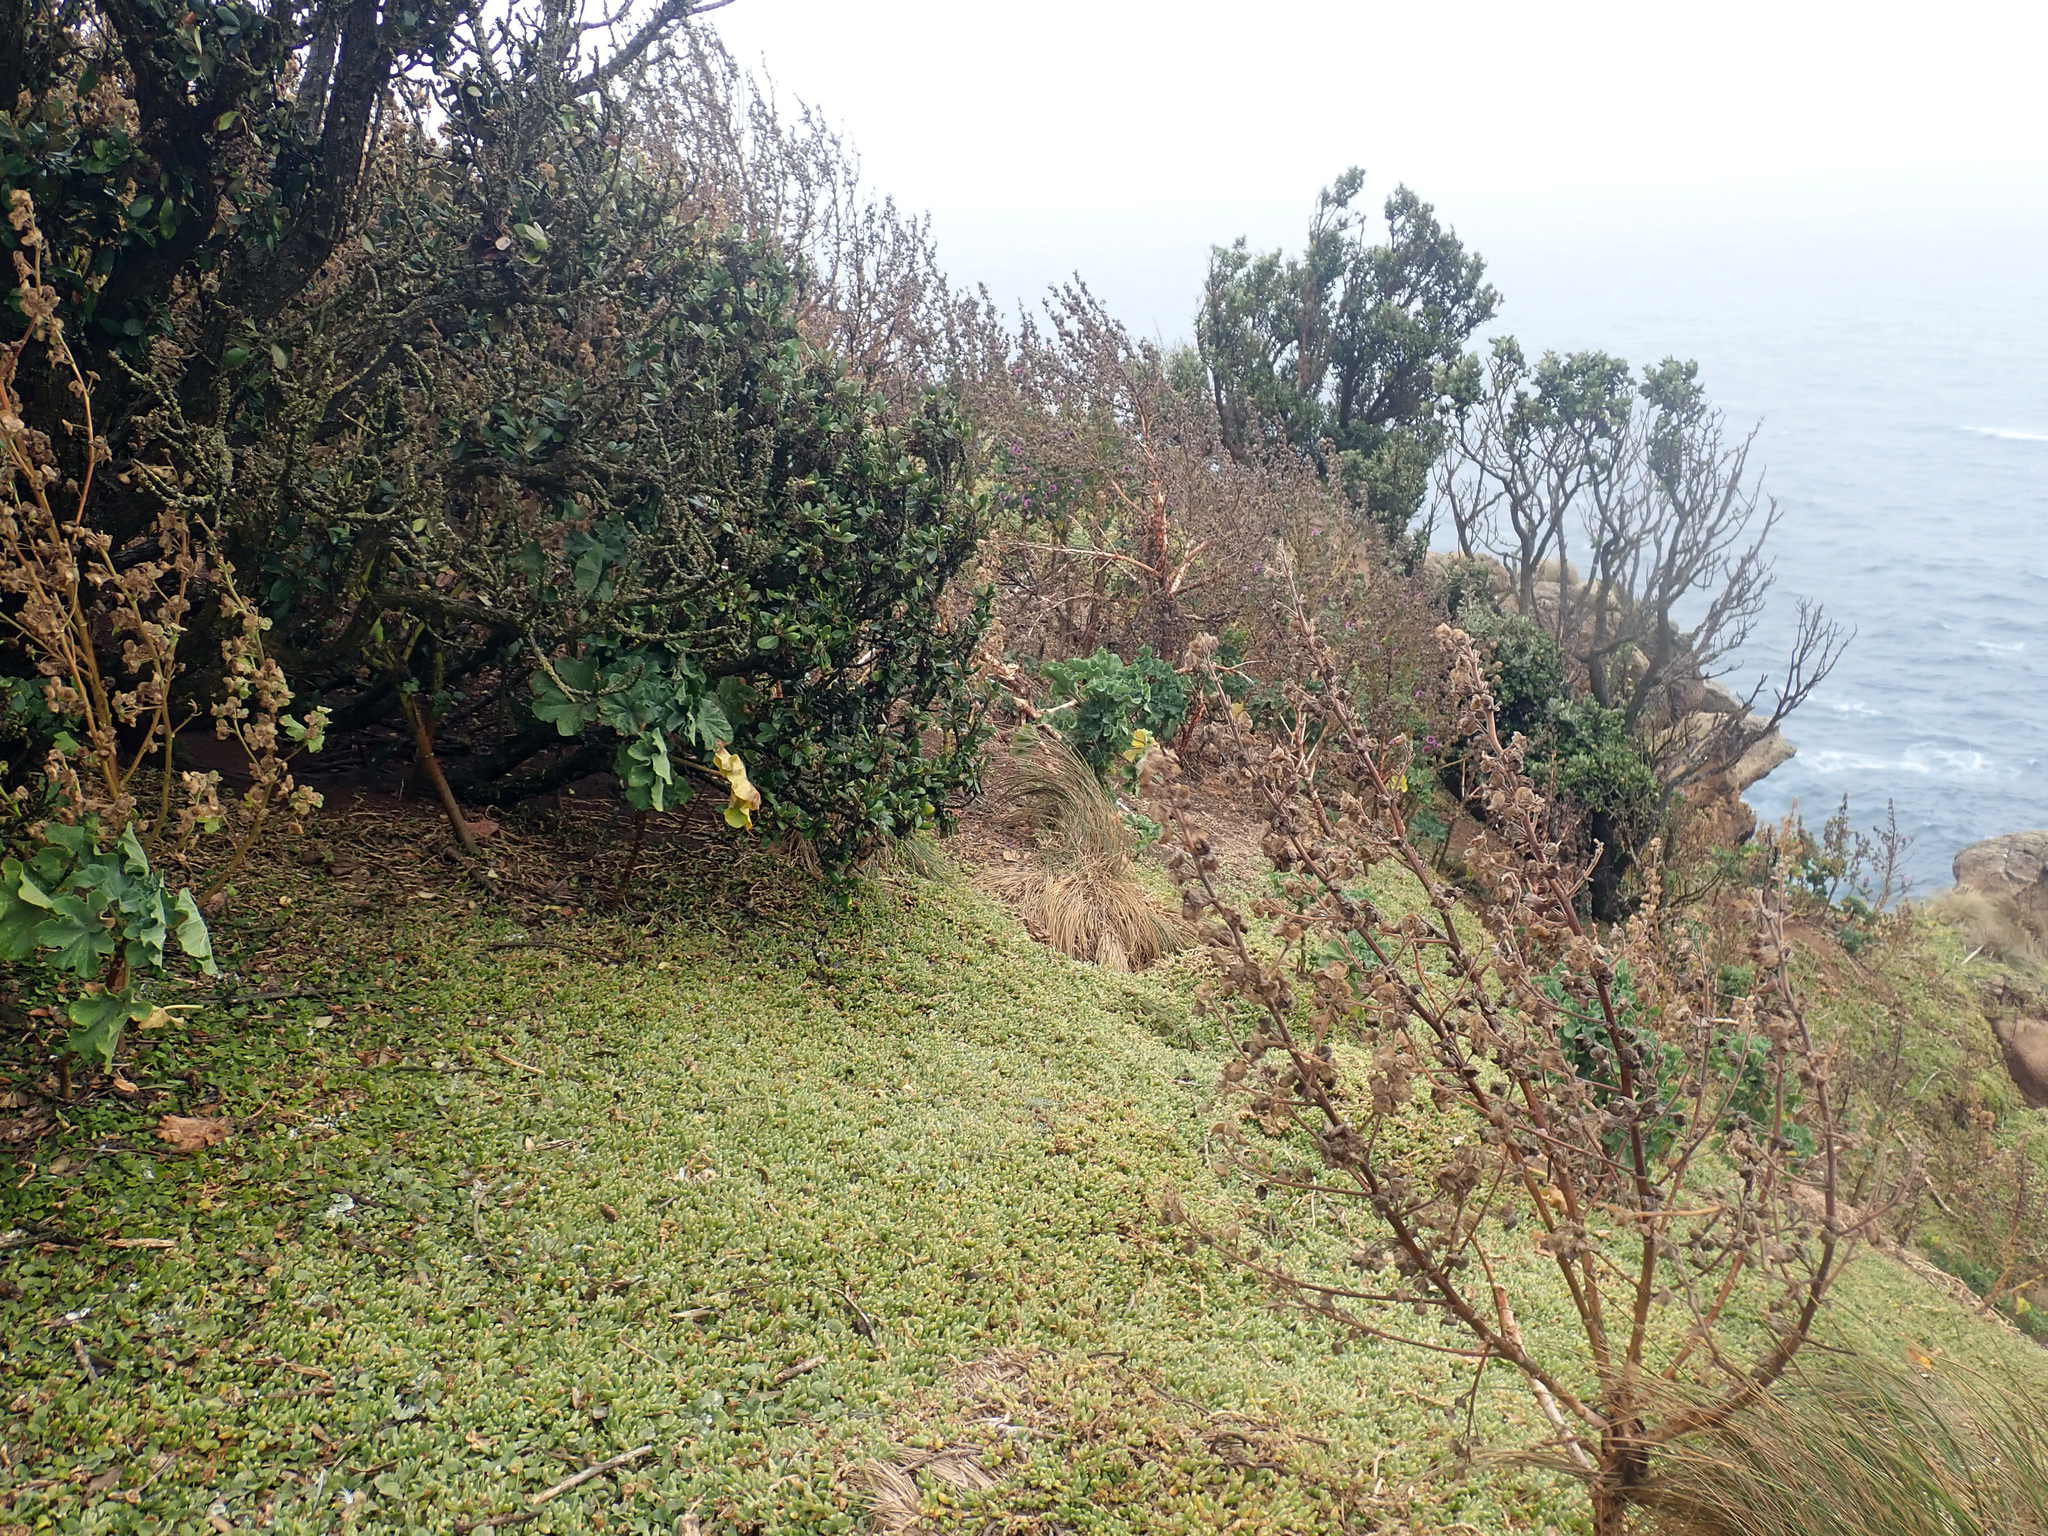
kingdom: Plantae
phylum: Tracheophyta
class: Magnoliopsida
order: Caryophyllales
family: Aizoaceae
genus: Disphyma
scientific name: Disphyma papillatum
